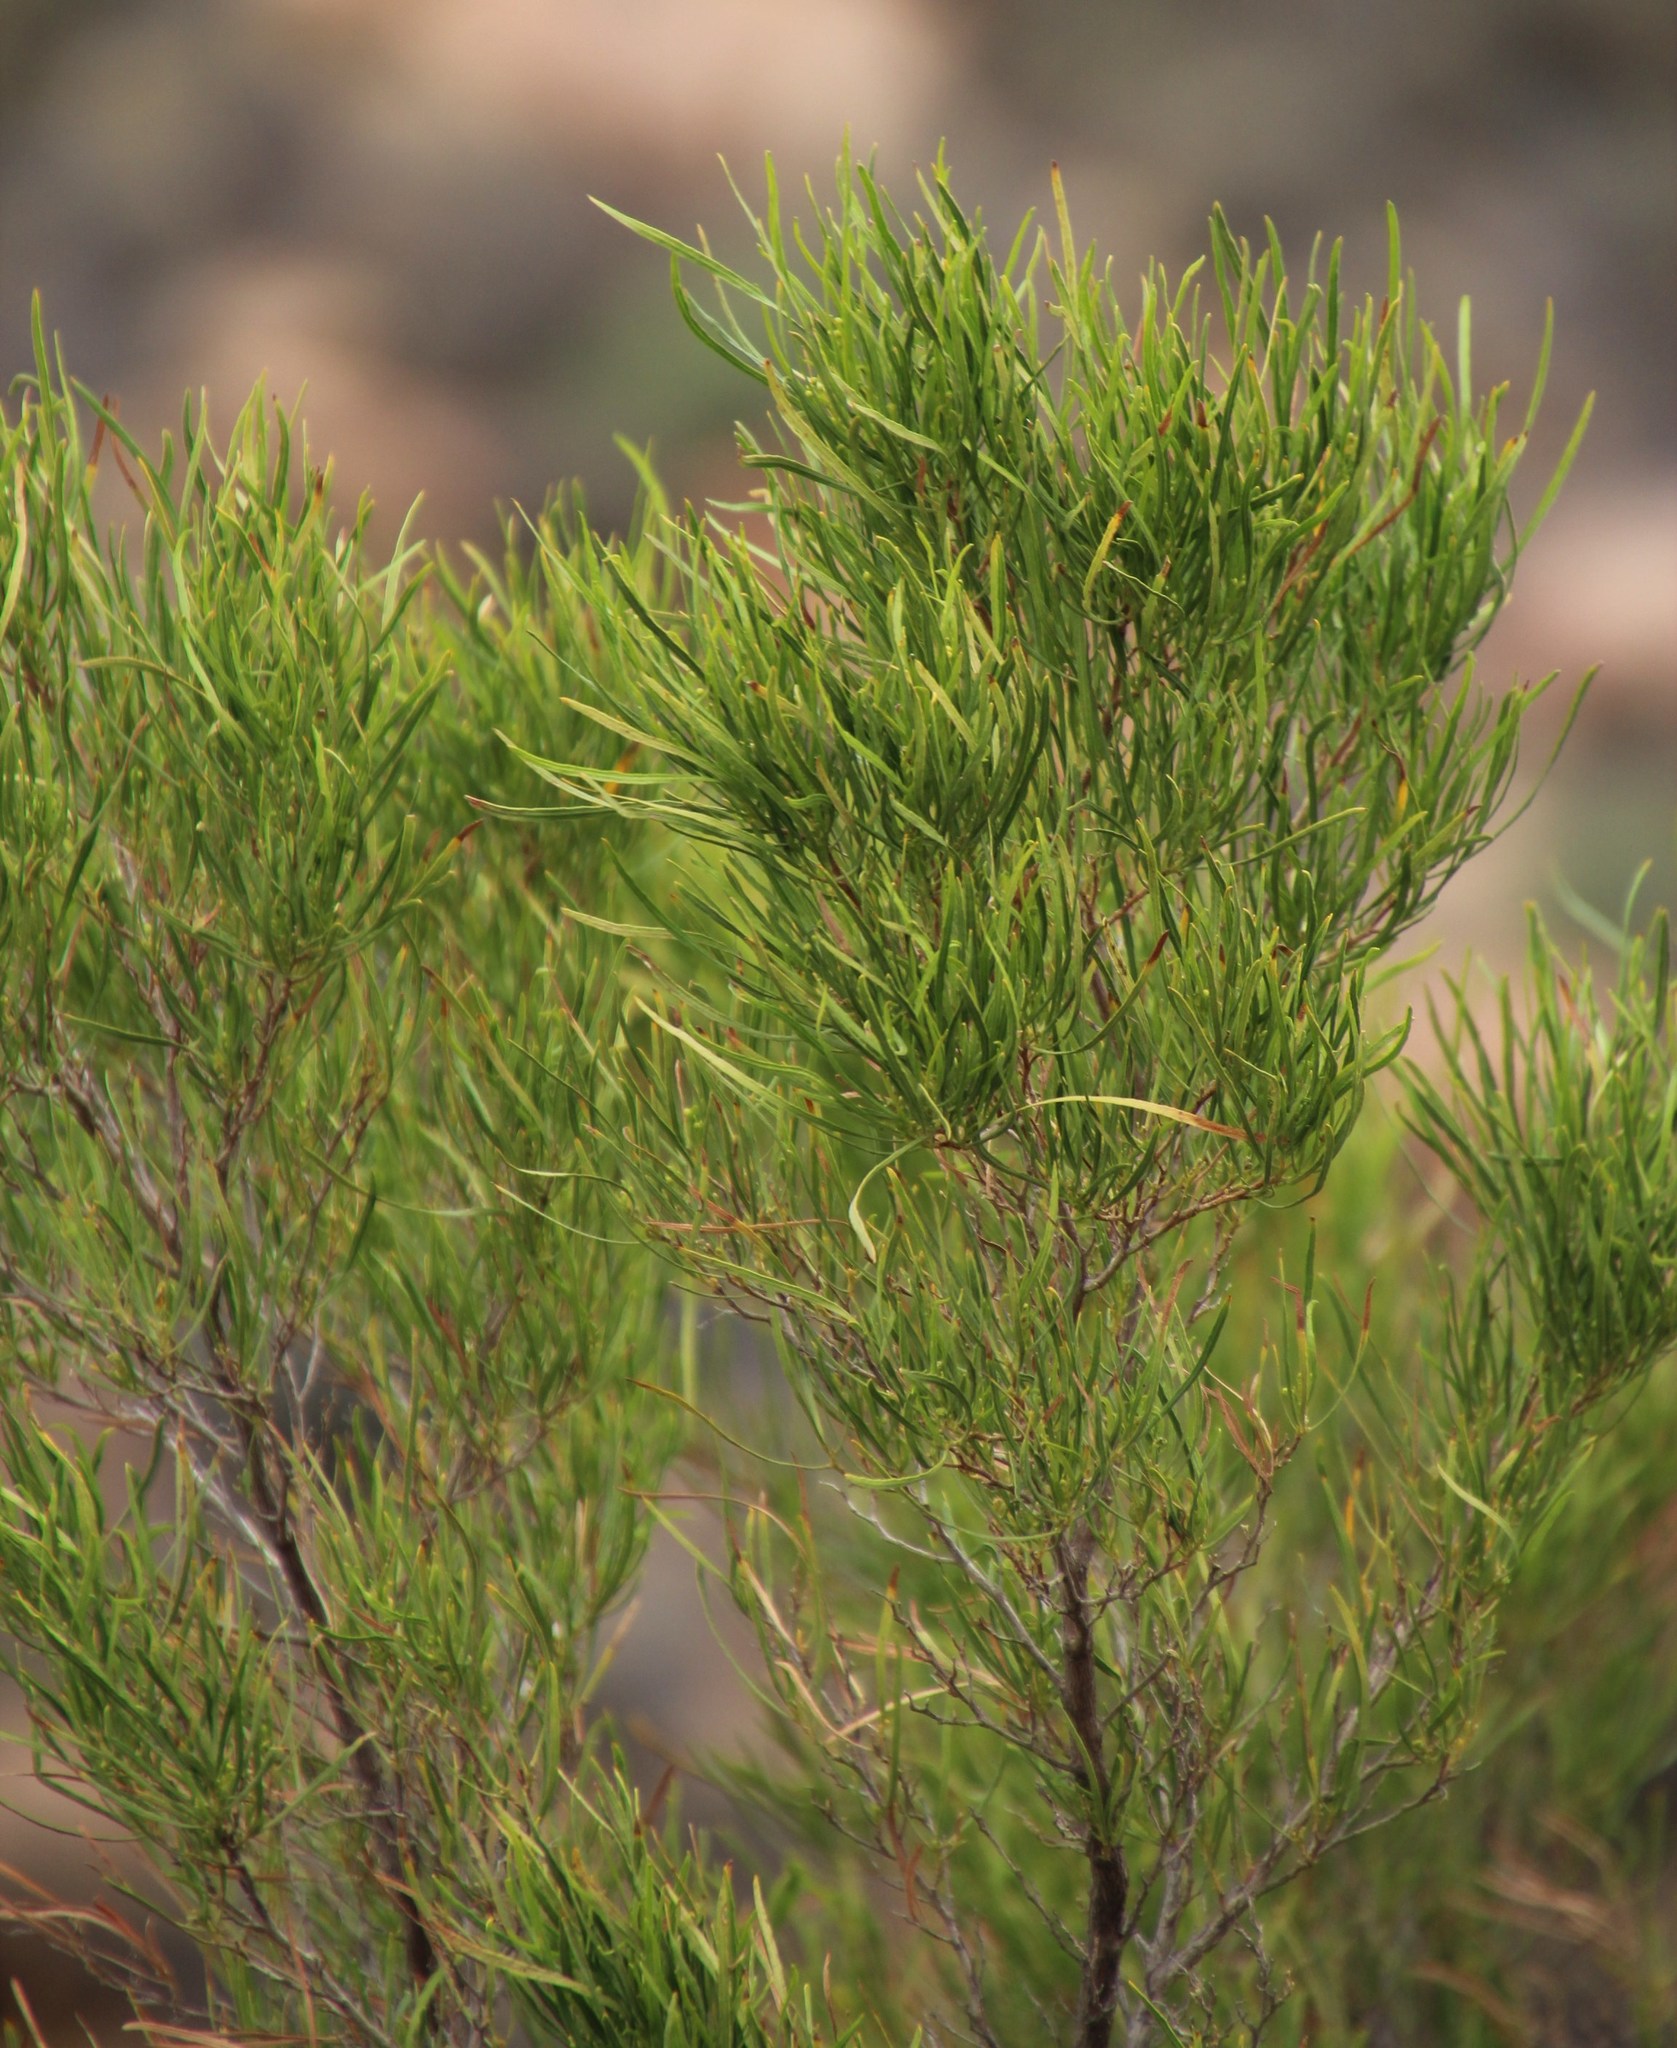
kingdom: Plantae
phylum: Tracheophyta
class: Magnoliopsida
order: Sapindales
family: Sapindaceae
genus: Dodonaea
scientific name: Dodonaea viscosa
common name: Hopbush
